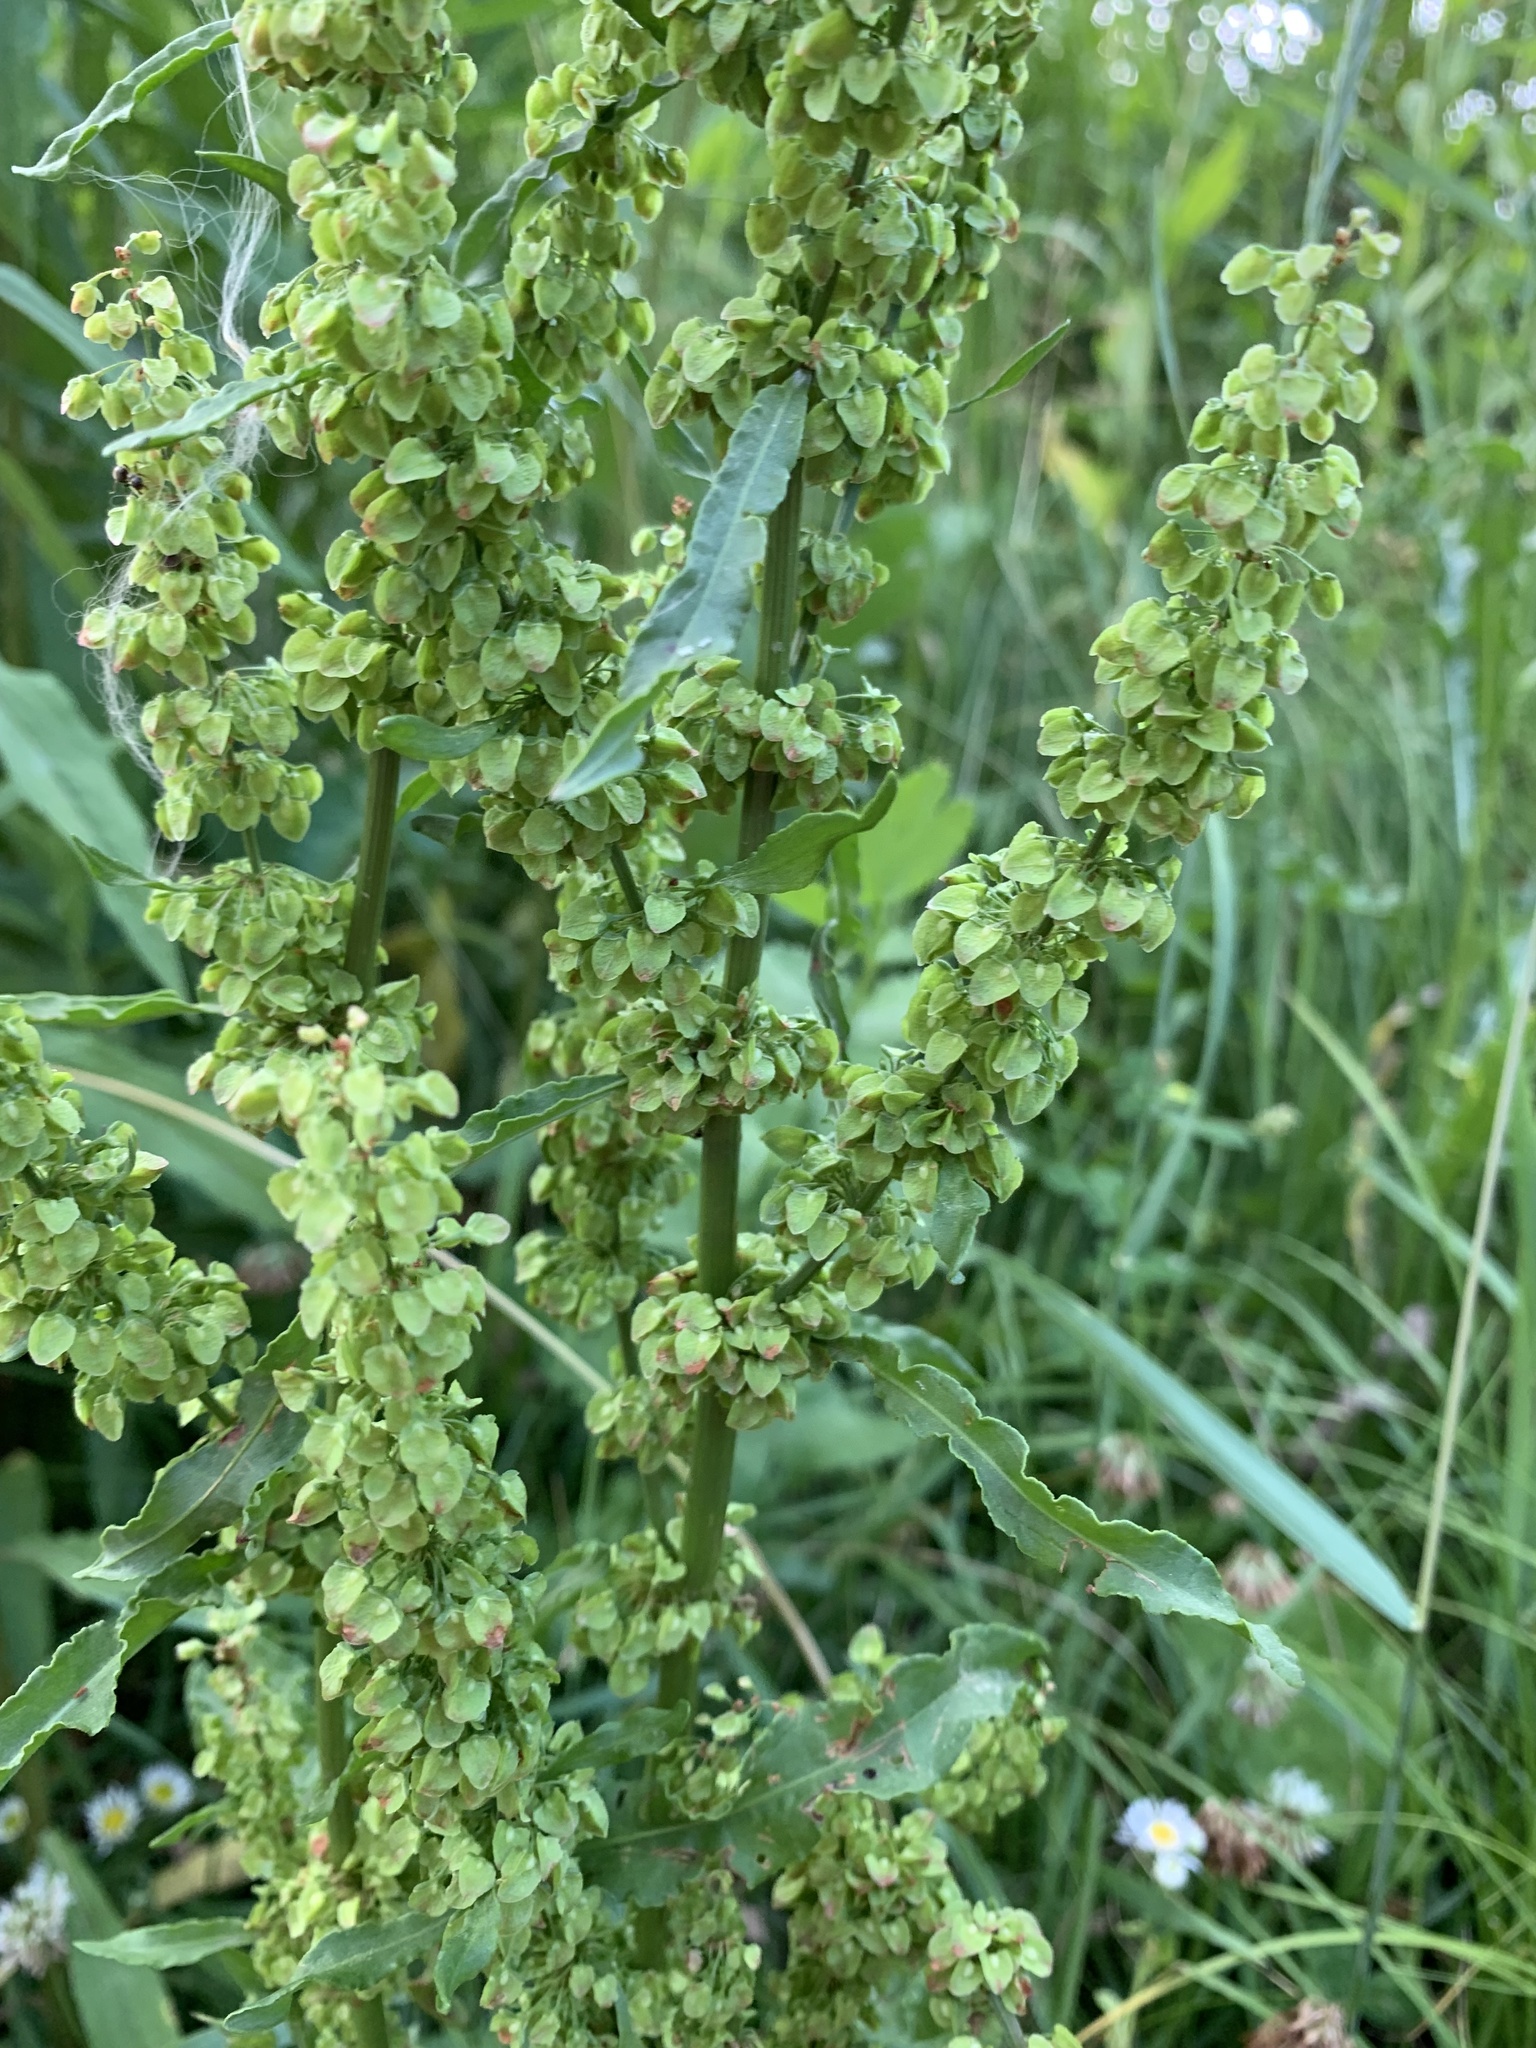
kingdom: Plantae
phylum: Tracheophyta
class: Magnoliopsida
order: Caryophyllales
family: Polygonaceae
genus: Rumex
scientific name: Rumex crispus
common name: Curled dock
